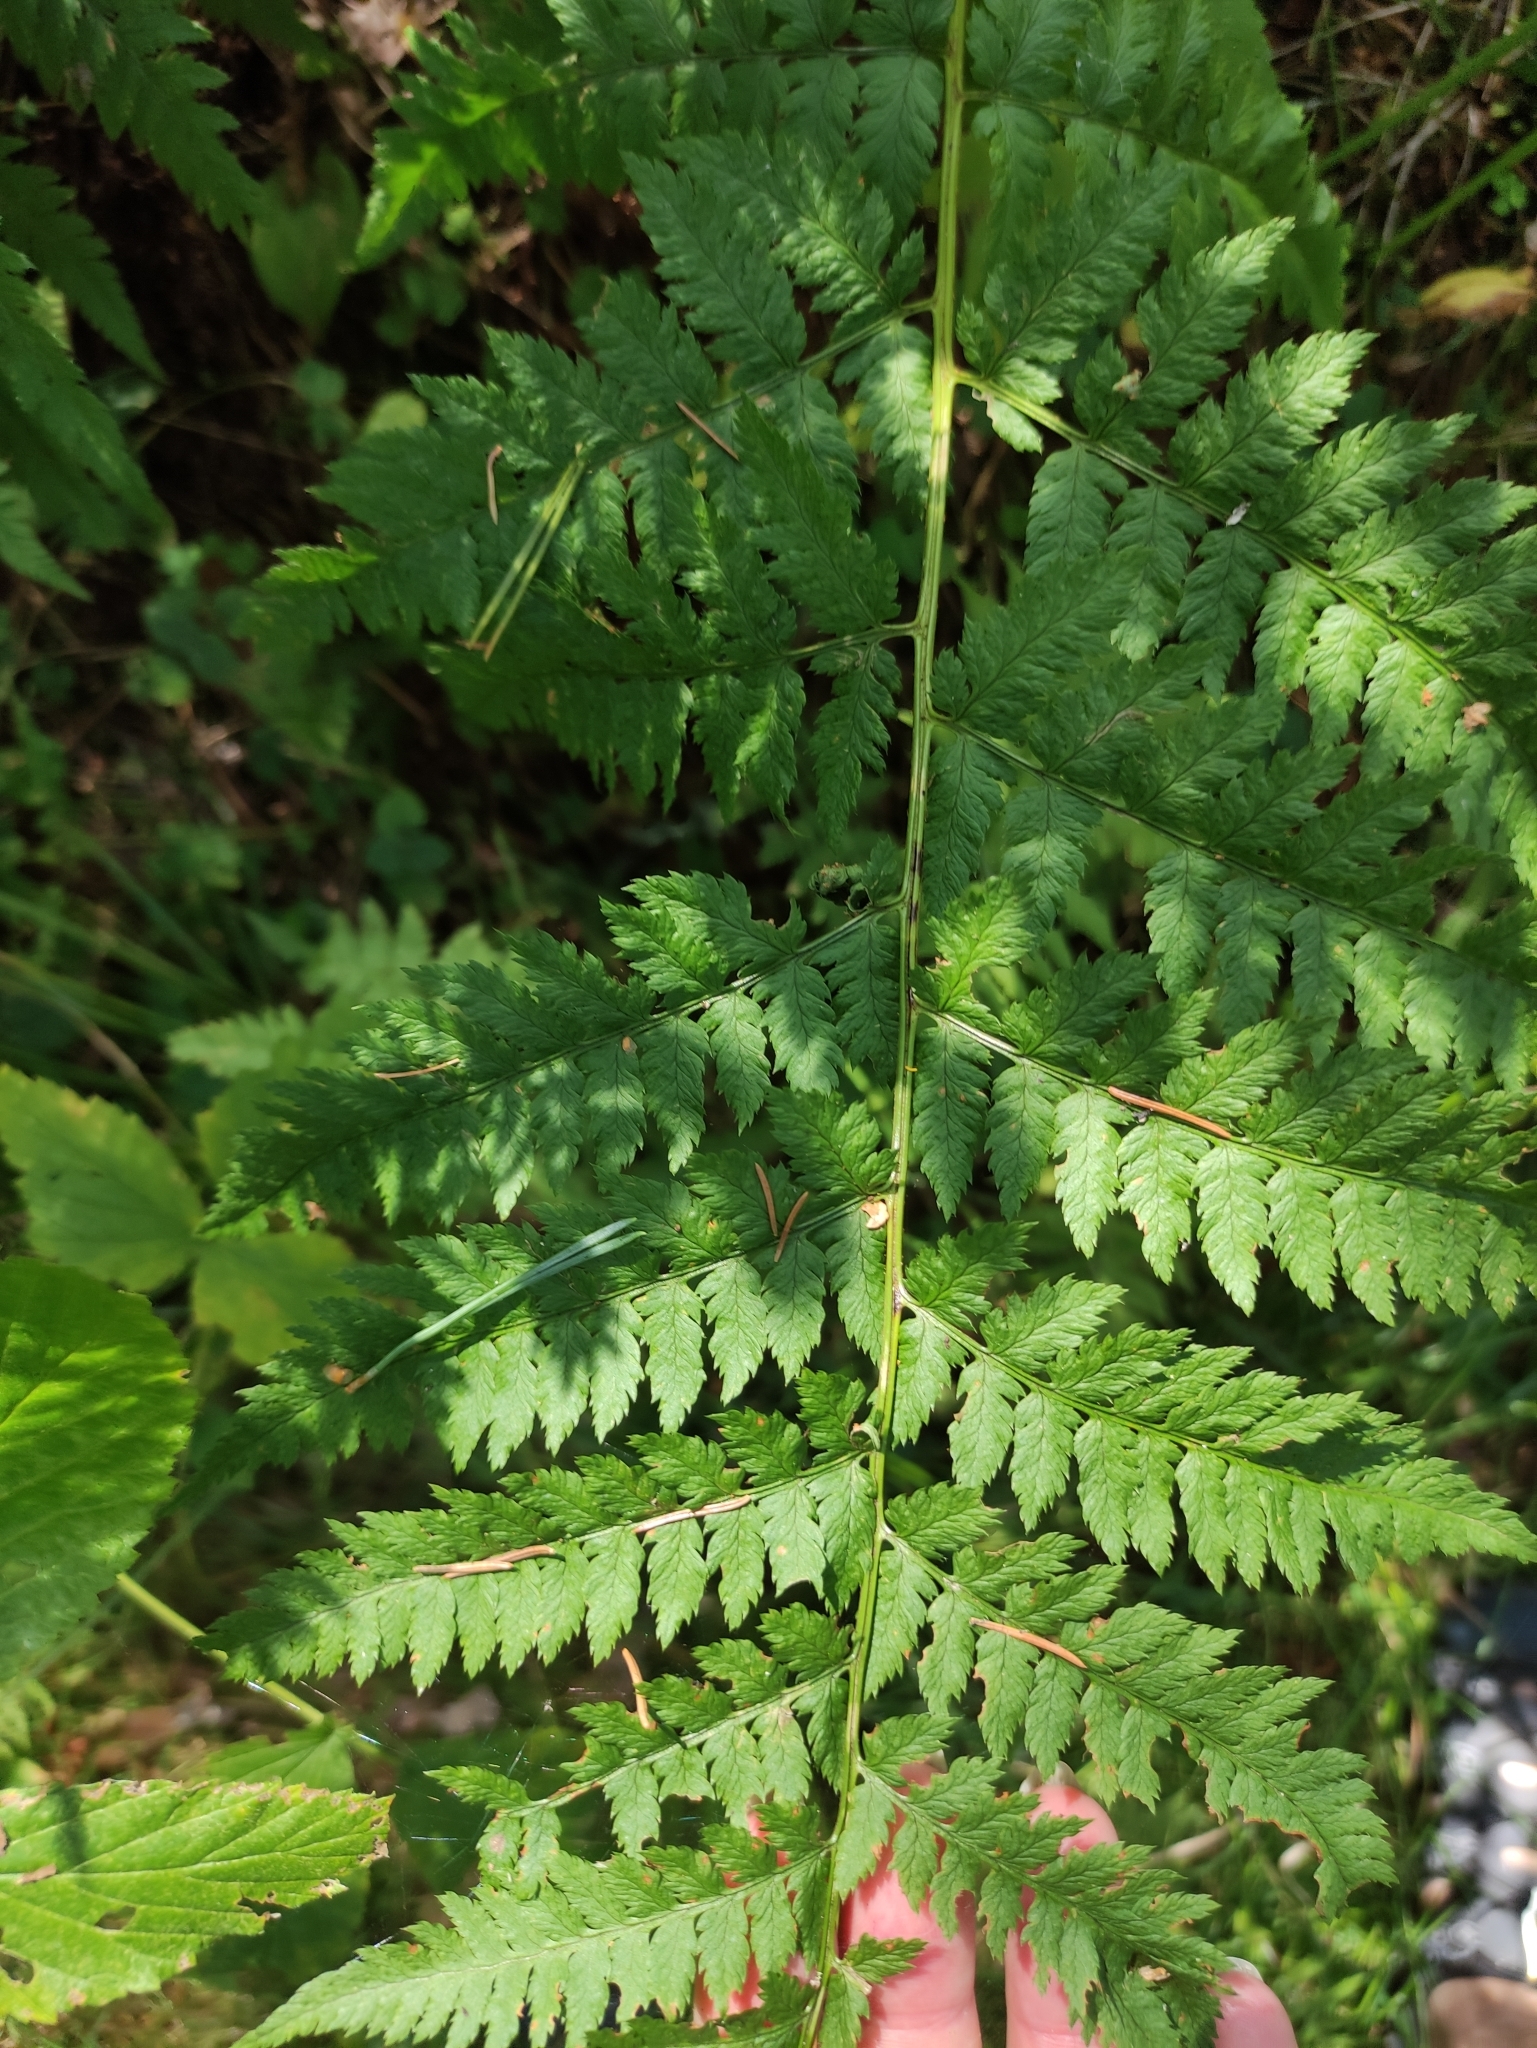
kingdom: Plantae
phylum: Tracheophyta
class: Polypodiopsida
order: Polypodiales
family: Dryopteridaceae
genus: Dryopteris
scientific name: Dryopteris carthusiana
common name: Narrow buckler-fern
